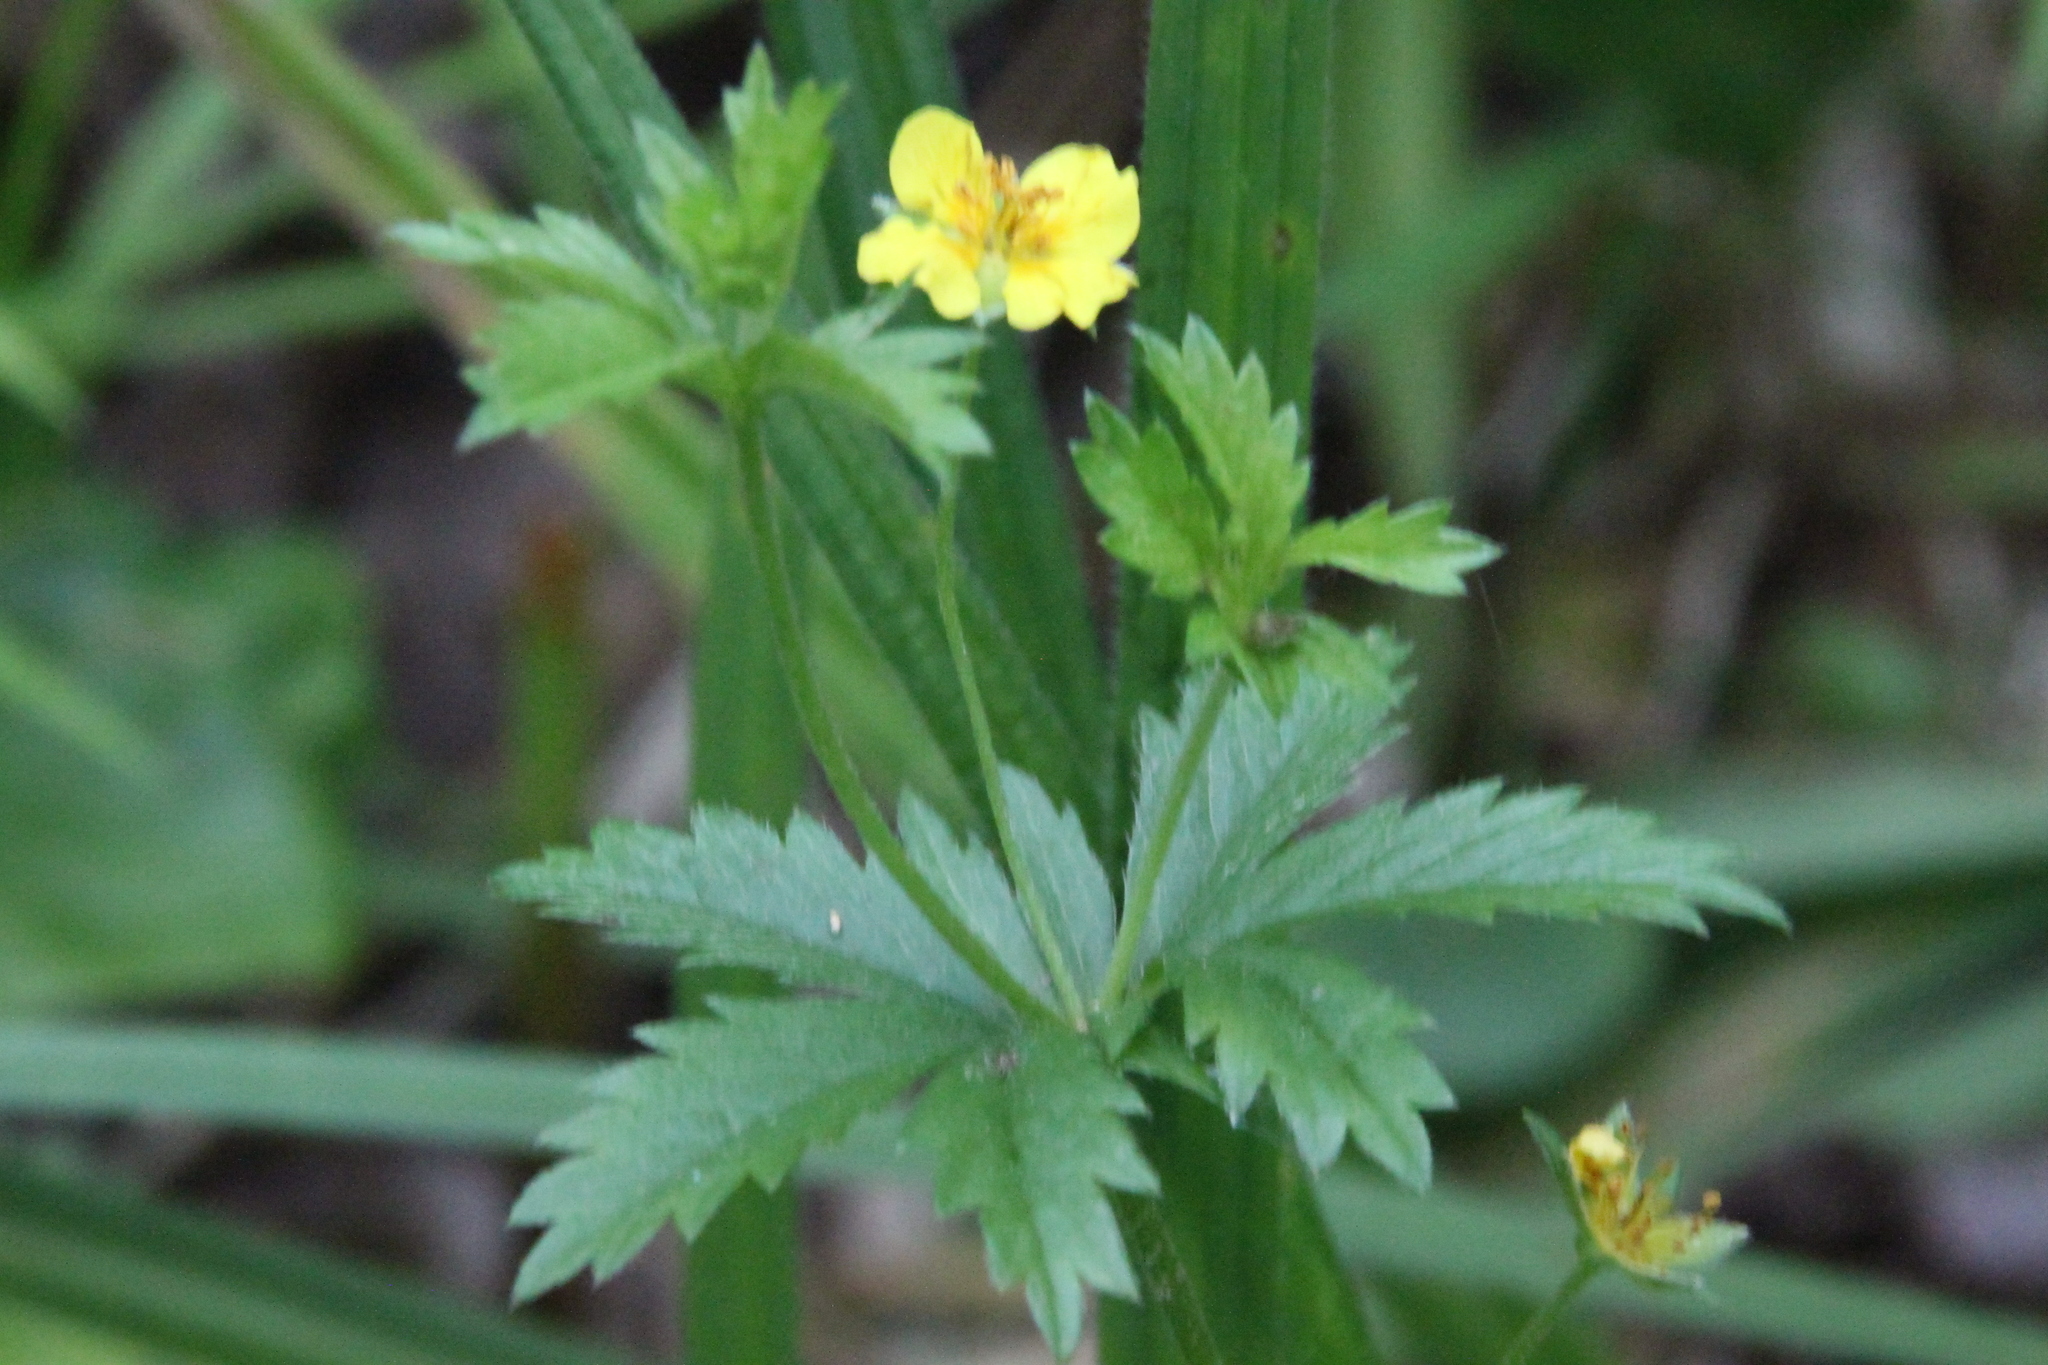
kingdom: Plantae
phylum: Tracheophyta
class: Magnoliopsida
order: Rosales
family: Rosaceae
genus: Potentilla
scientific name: Potentilla erecta
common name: Tormentil
